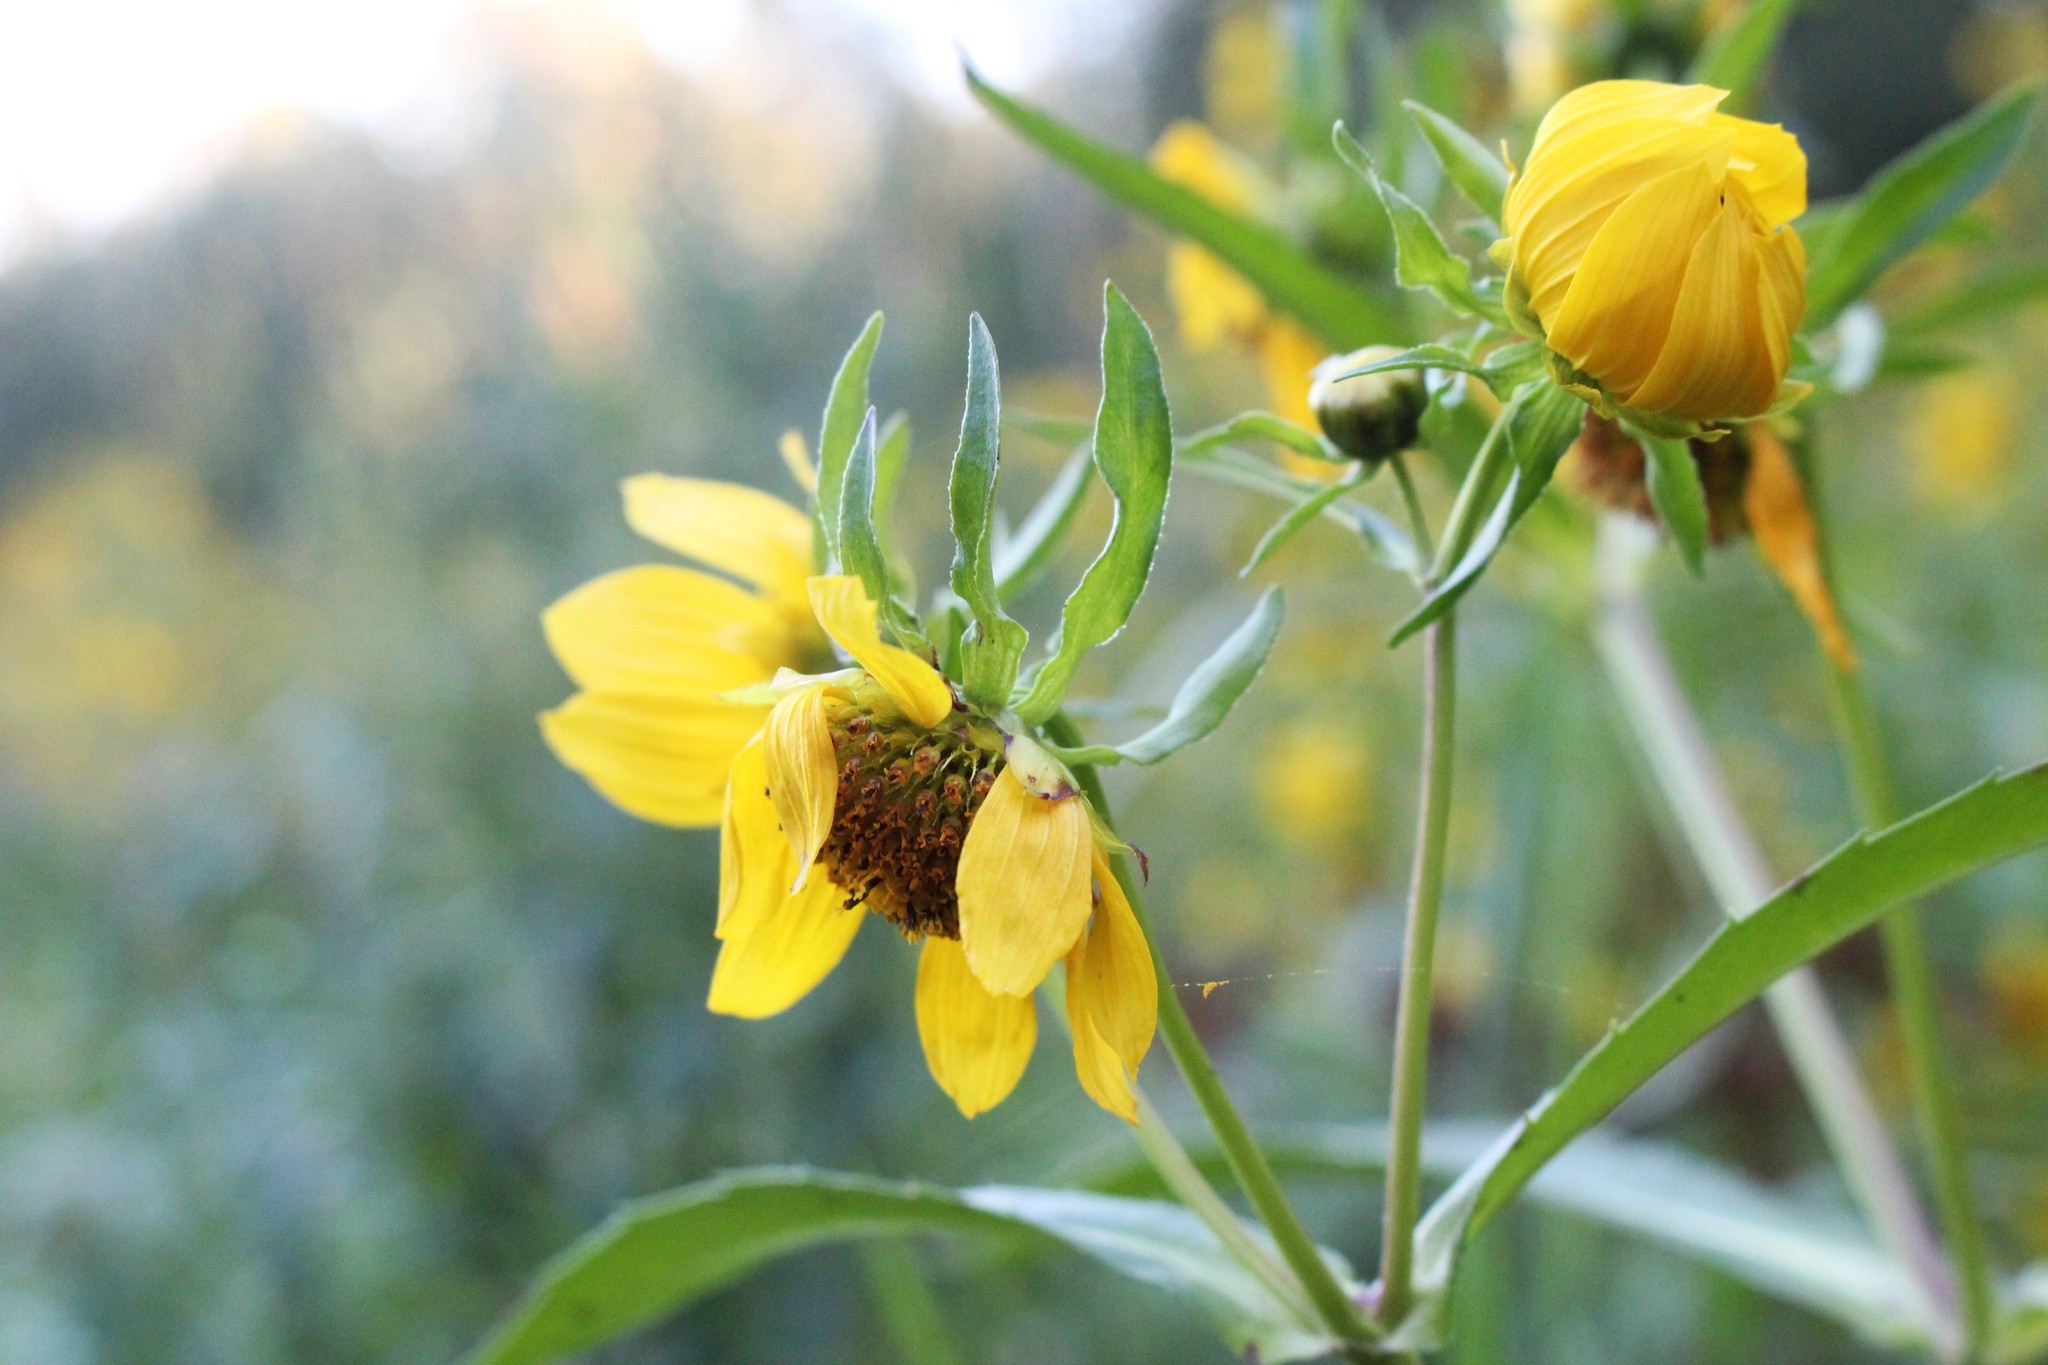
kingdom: Plantae
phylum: Tracheophyta
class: Magnoliopsida
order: Asterales
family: Asteraceae
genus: Bidens
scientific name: Bidens cernua
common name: Nodding bur-marigold
